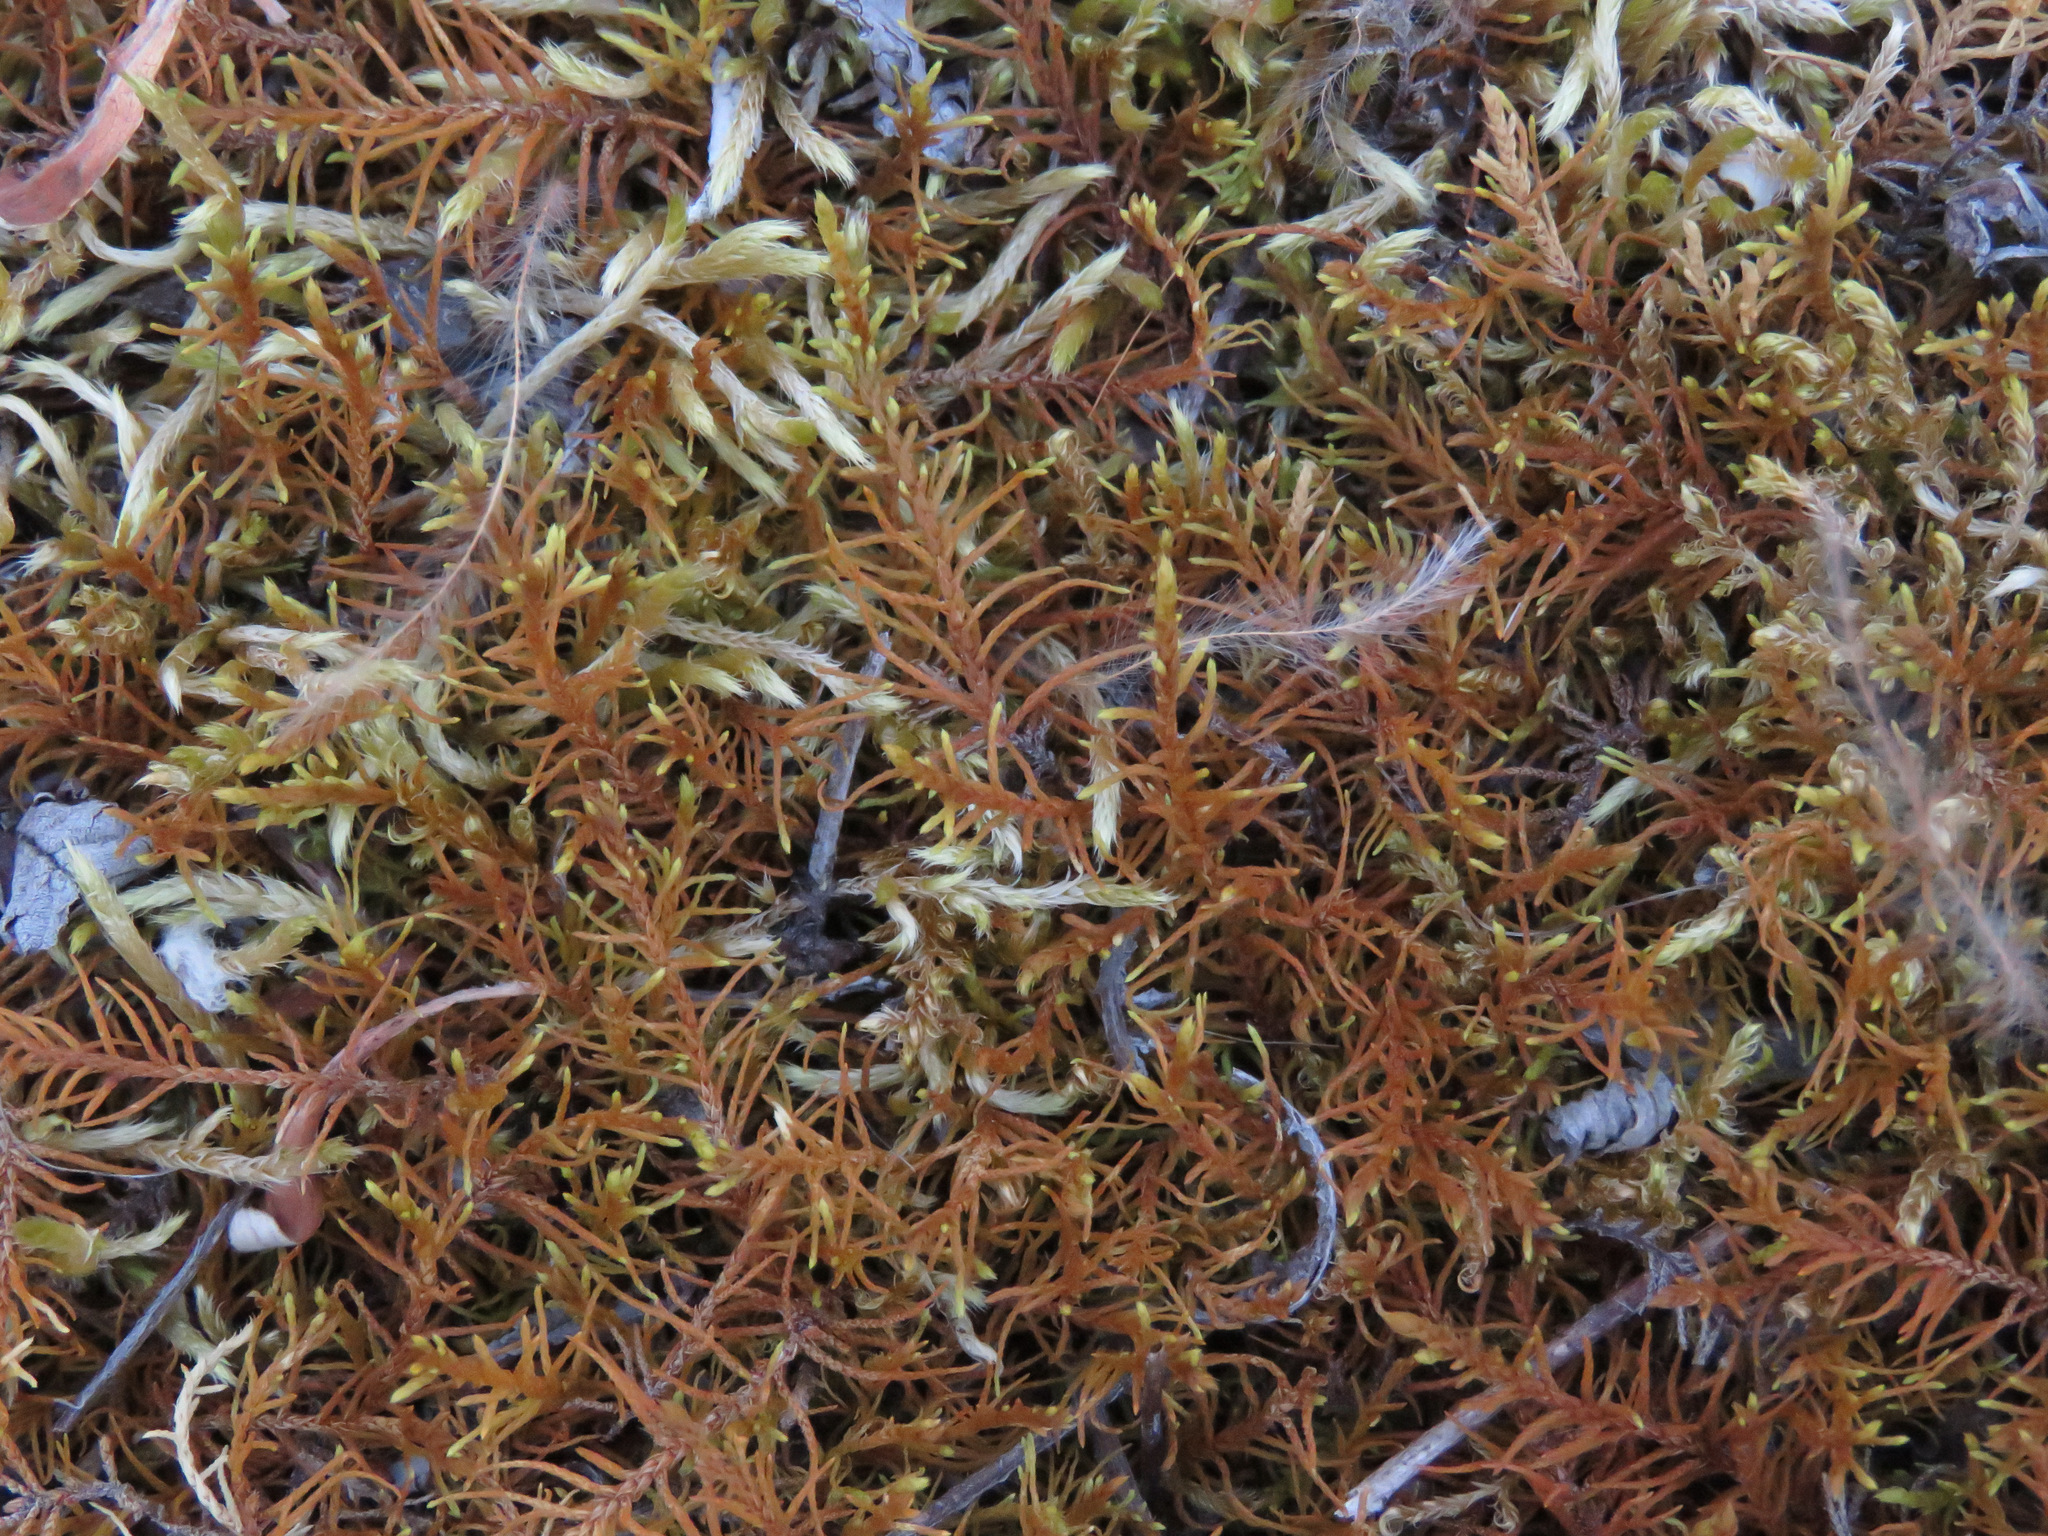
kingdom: Plantae
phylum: Bryophyta
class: Bryopsida
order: Hypnales
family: Thuidiaceae
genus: Abietinella
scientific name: Abietinella abietina
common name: Wiry fern moss
